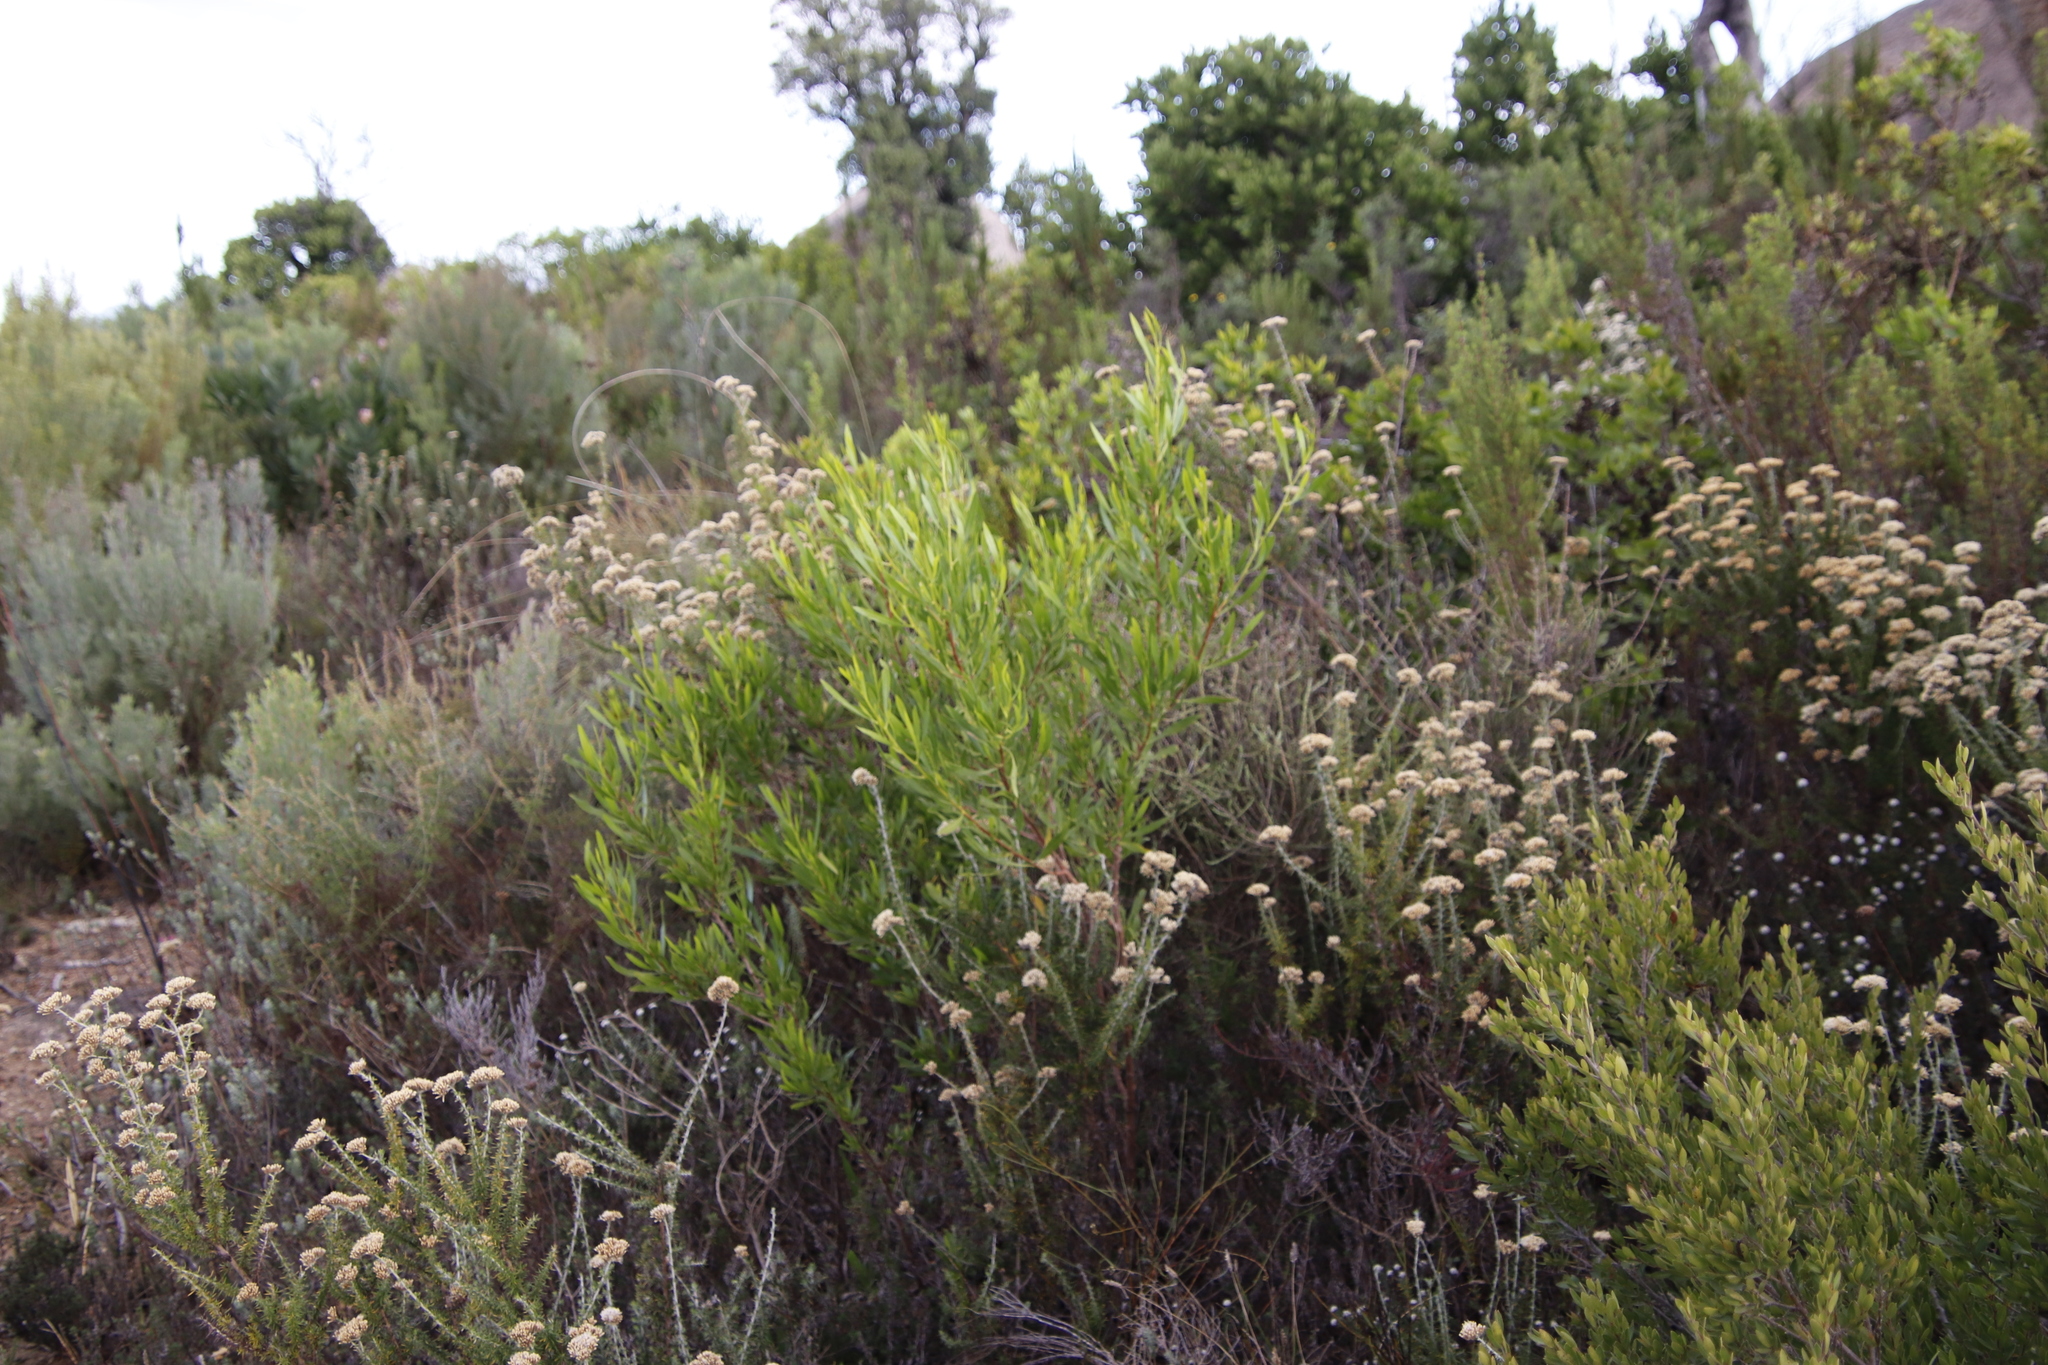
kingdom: Plantae
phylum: Tracheophyta
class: Magnoliopsida
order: Sapindales
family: Sapindaceae
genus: Dodonaea
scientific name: Dodonaea viscosa
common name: Hopbush
